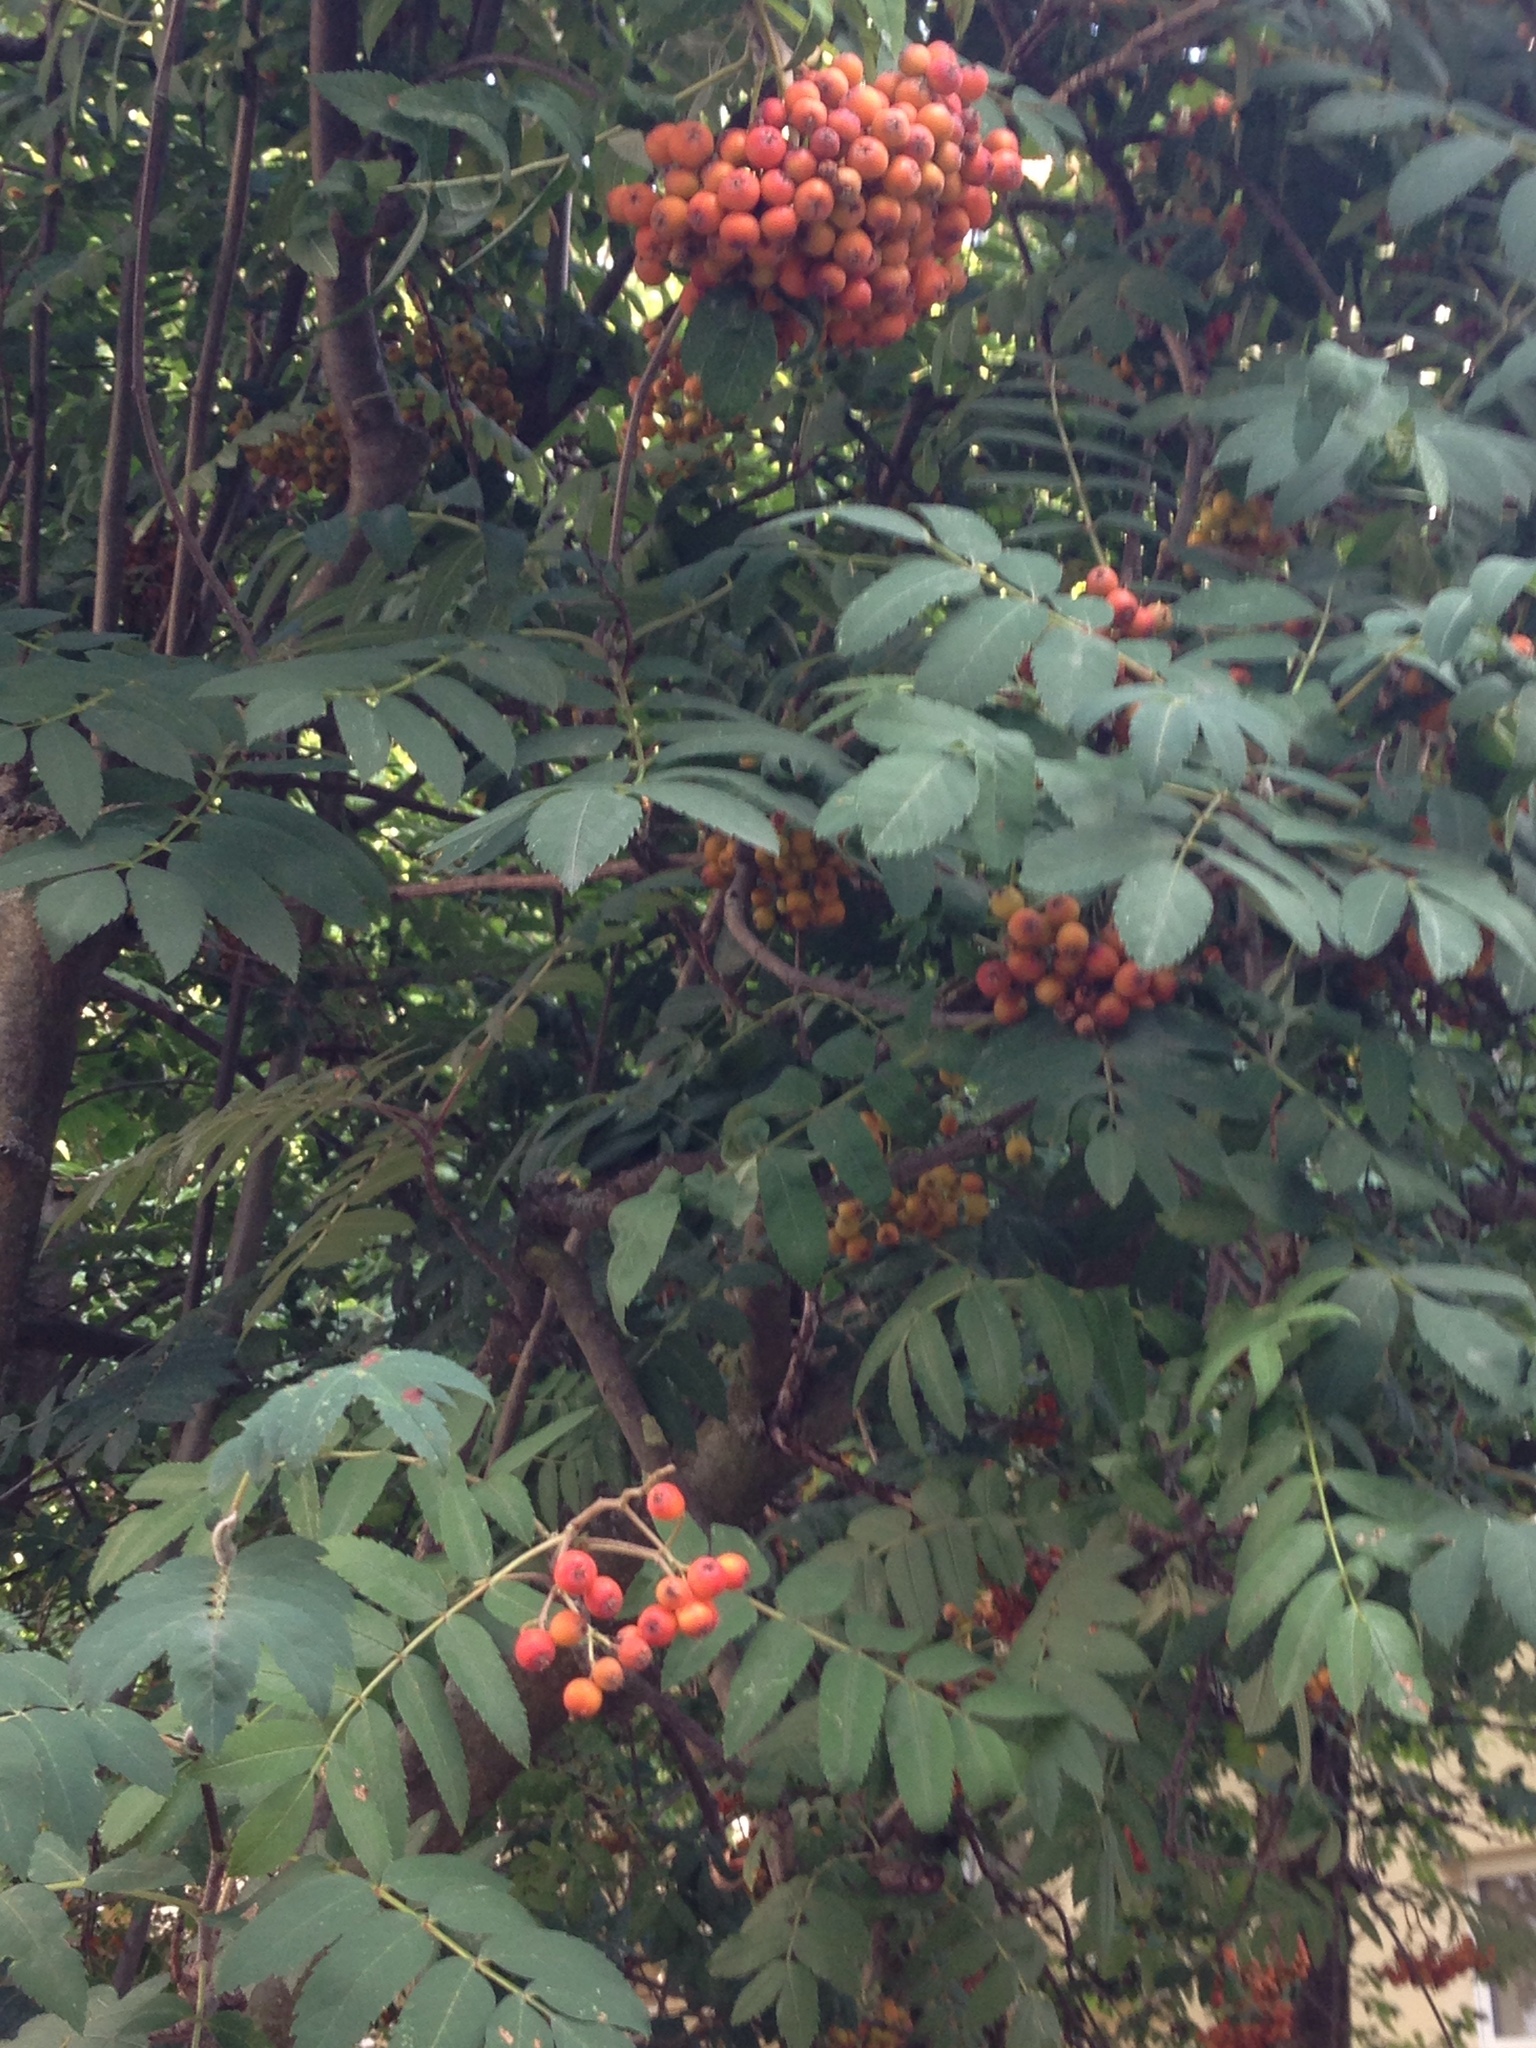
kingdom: Plantae
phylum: Tracheophyta
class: Magnoliopsida
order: Rosales
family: Rosaceae
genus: Sorbus
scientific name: Sorbus aucuparia
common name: Rowan
